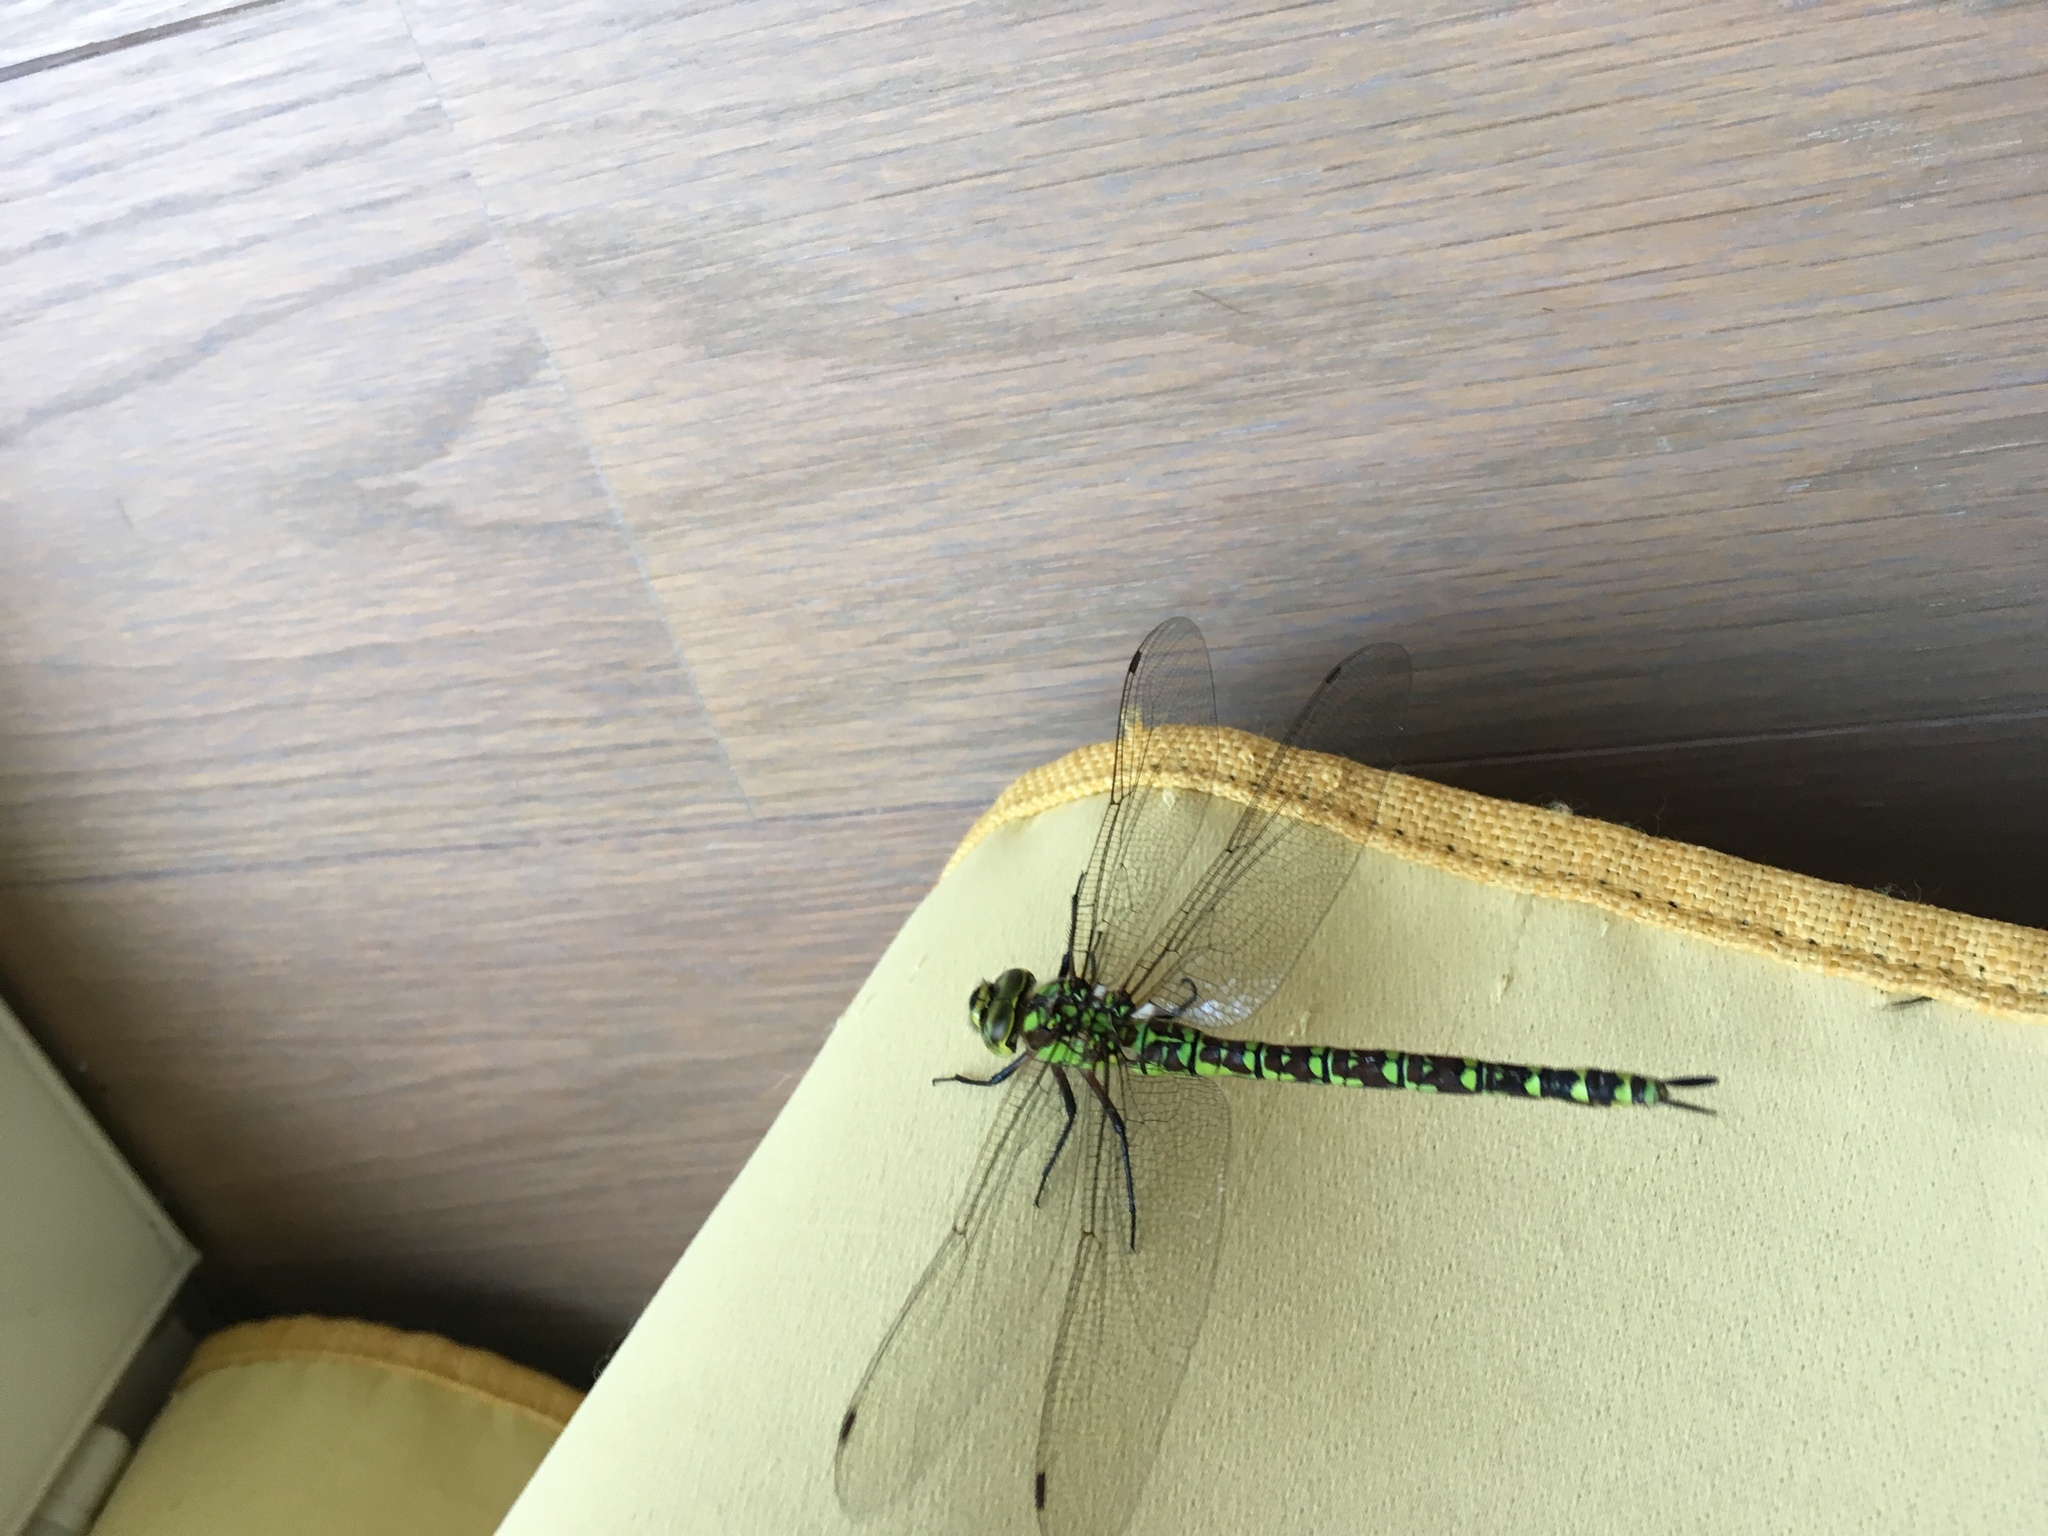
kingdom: Animalia
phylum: Arthropoda
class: Insecta
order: Odonata
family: Aeshnidae
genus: Aeshna
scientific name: Aeshna cyanea
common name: Southern hawker
